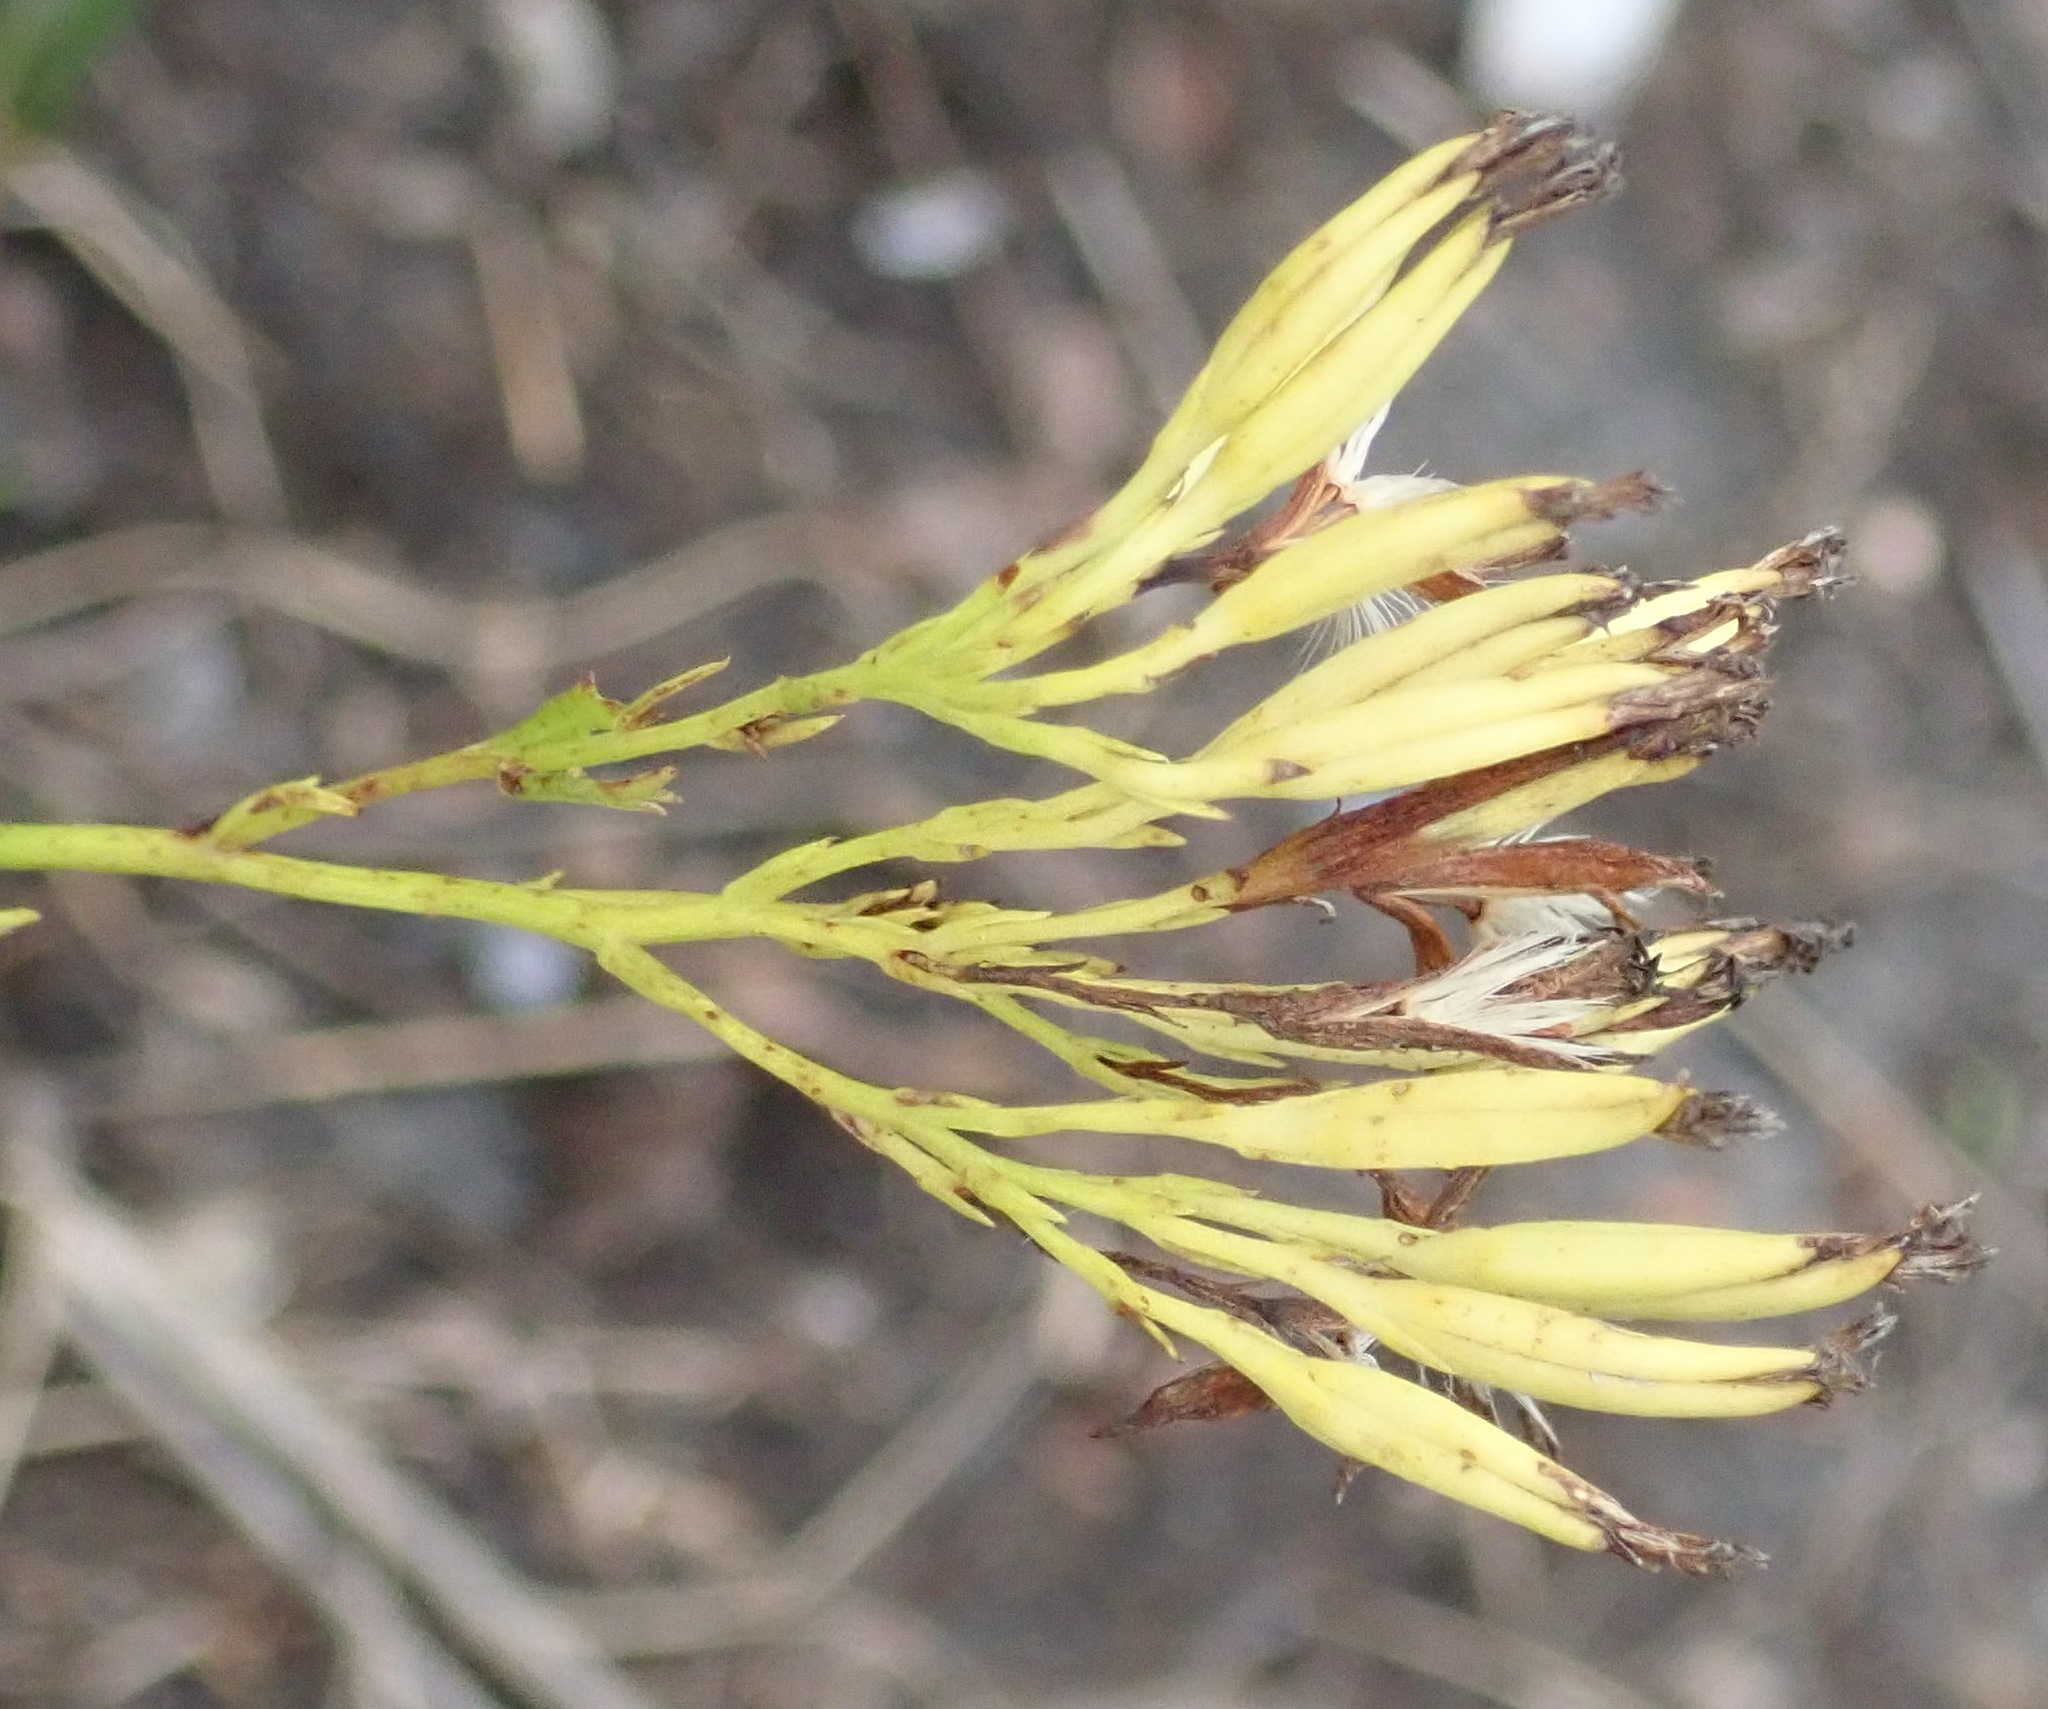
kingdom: Plantae
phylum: Tracheophyta
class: Magnoliopsida
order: Asterales
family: Asteraceae
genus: Senecio
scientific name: Senecio bipinnatus
